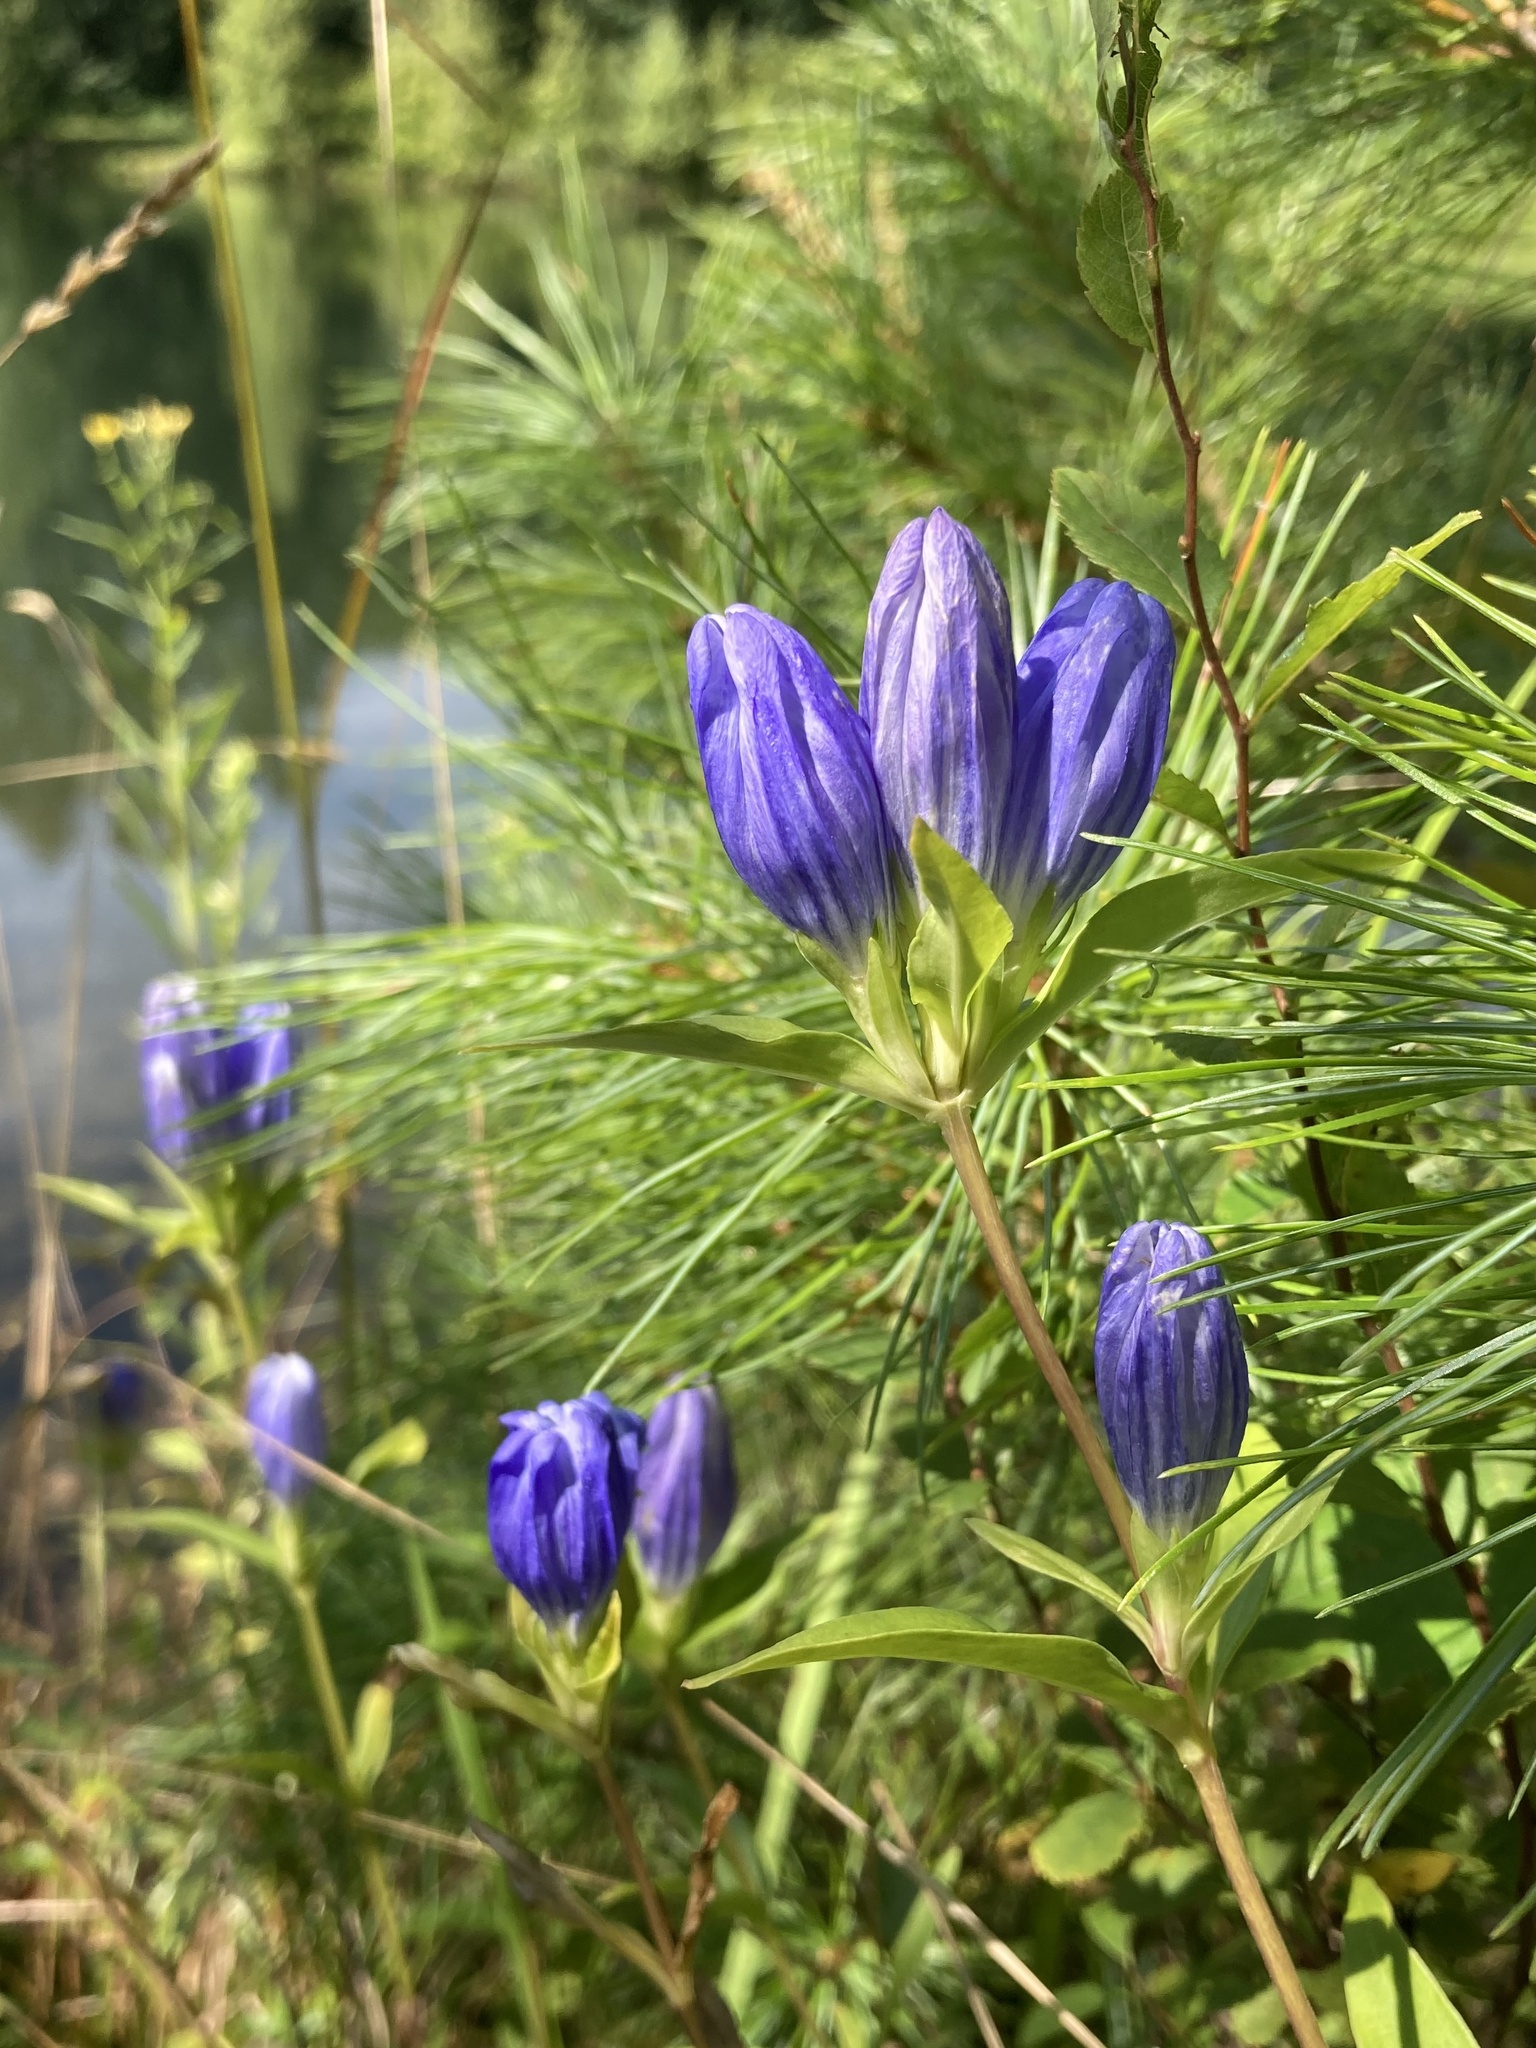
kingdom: Plantae
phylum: Tracheophyta
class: Magnoliopsida
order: Gentianales
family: Gentianaceae
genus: Gentiana
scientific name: Gentiana linearis
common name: Bastard gentian
